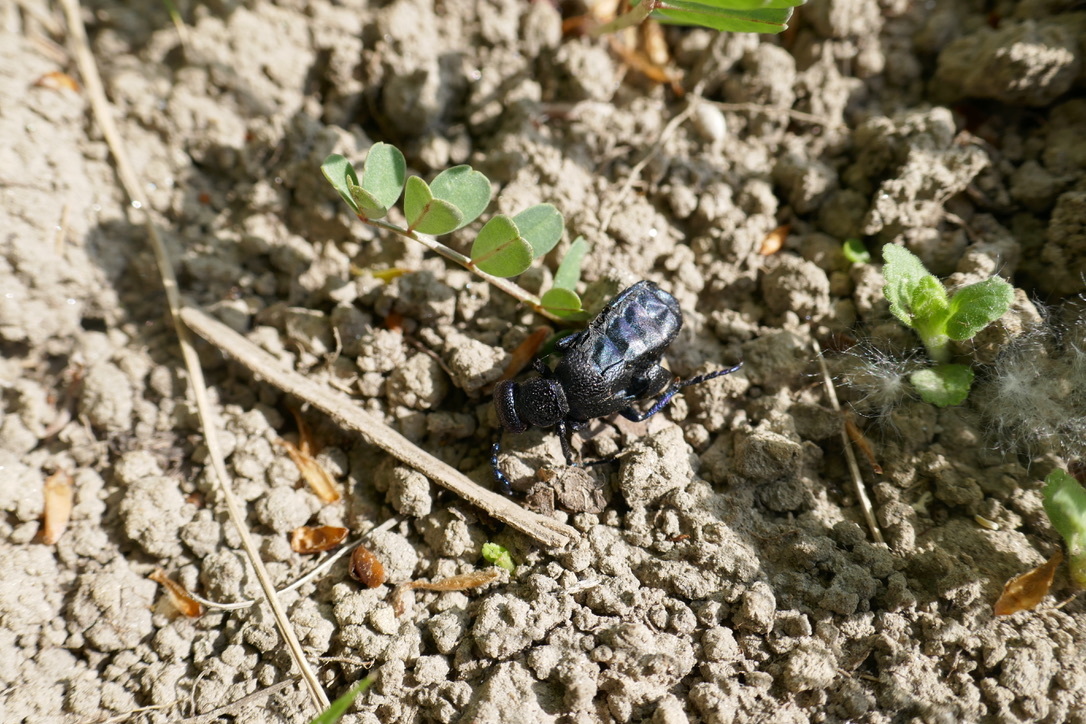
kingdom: Animalia
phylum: Arthropoda
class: Insecta
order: Coleoptera
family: Meloidae
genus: Meloe
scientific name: Meloe proscarabaeus
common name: Black oil-beetle
